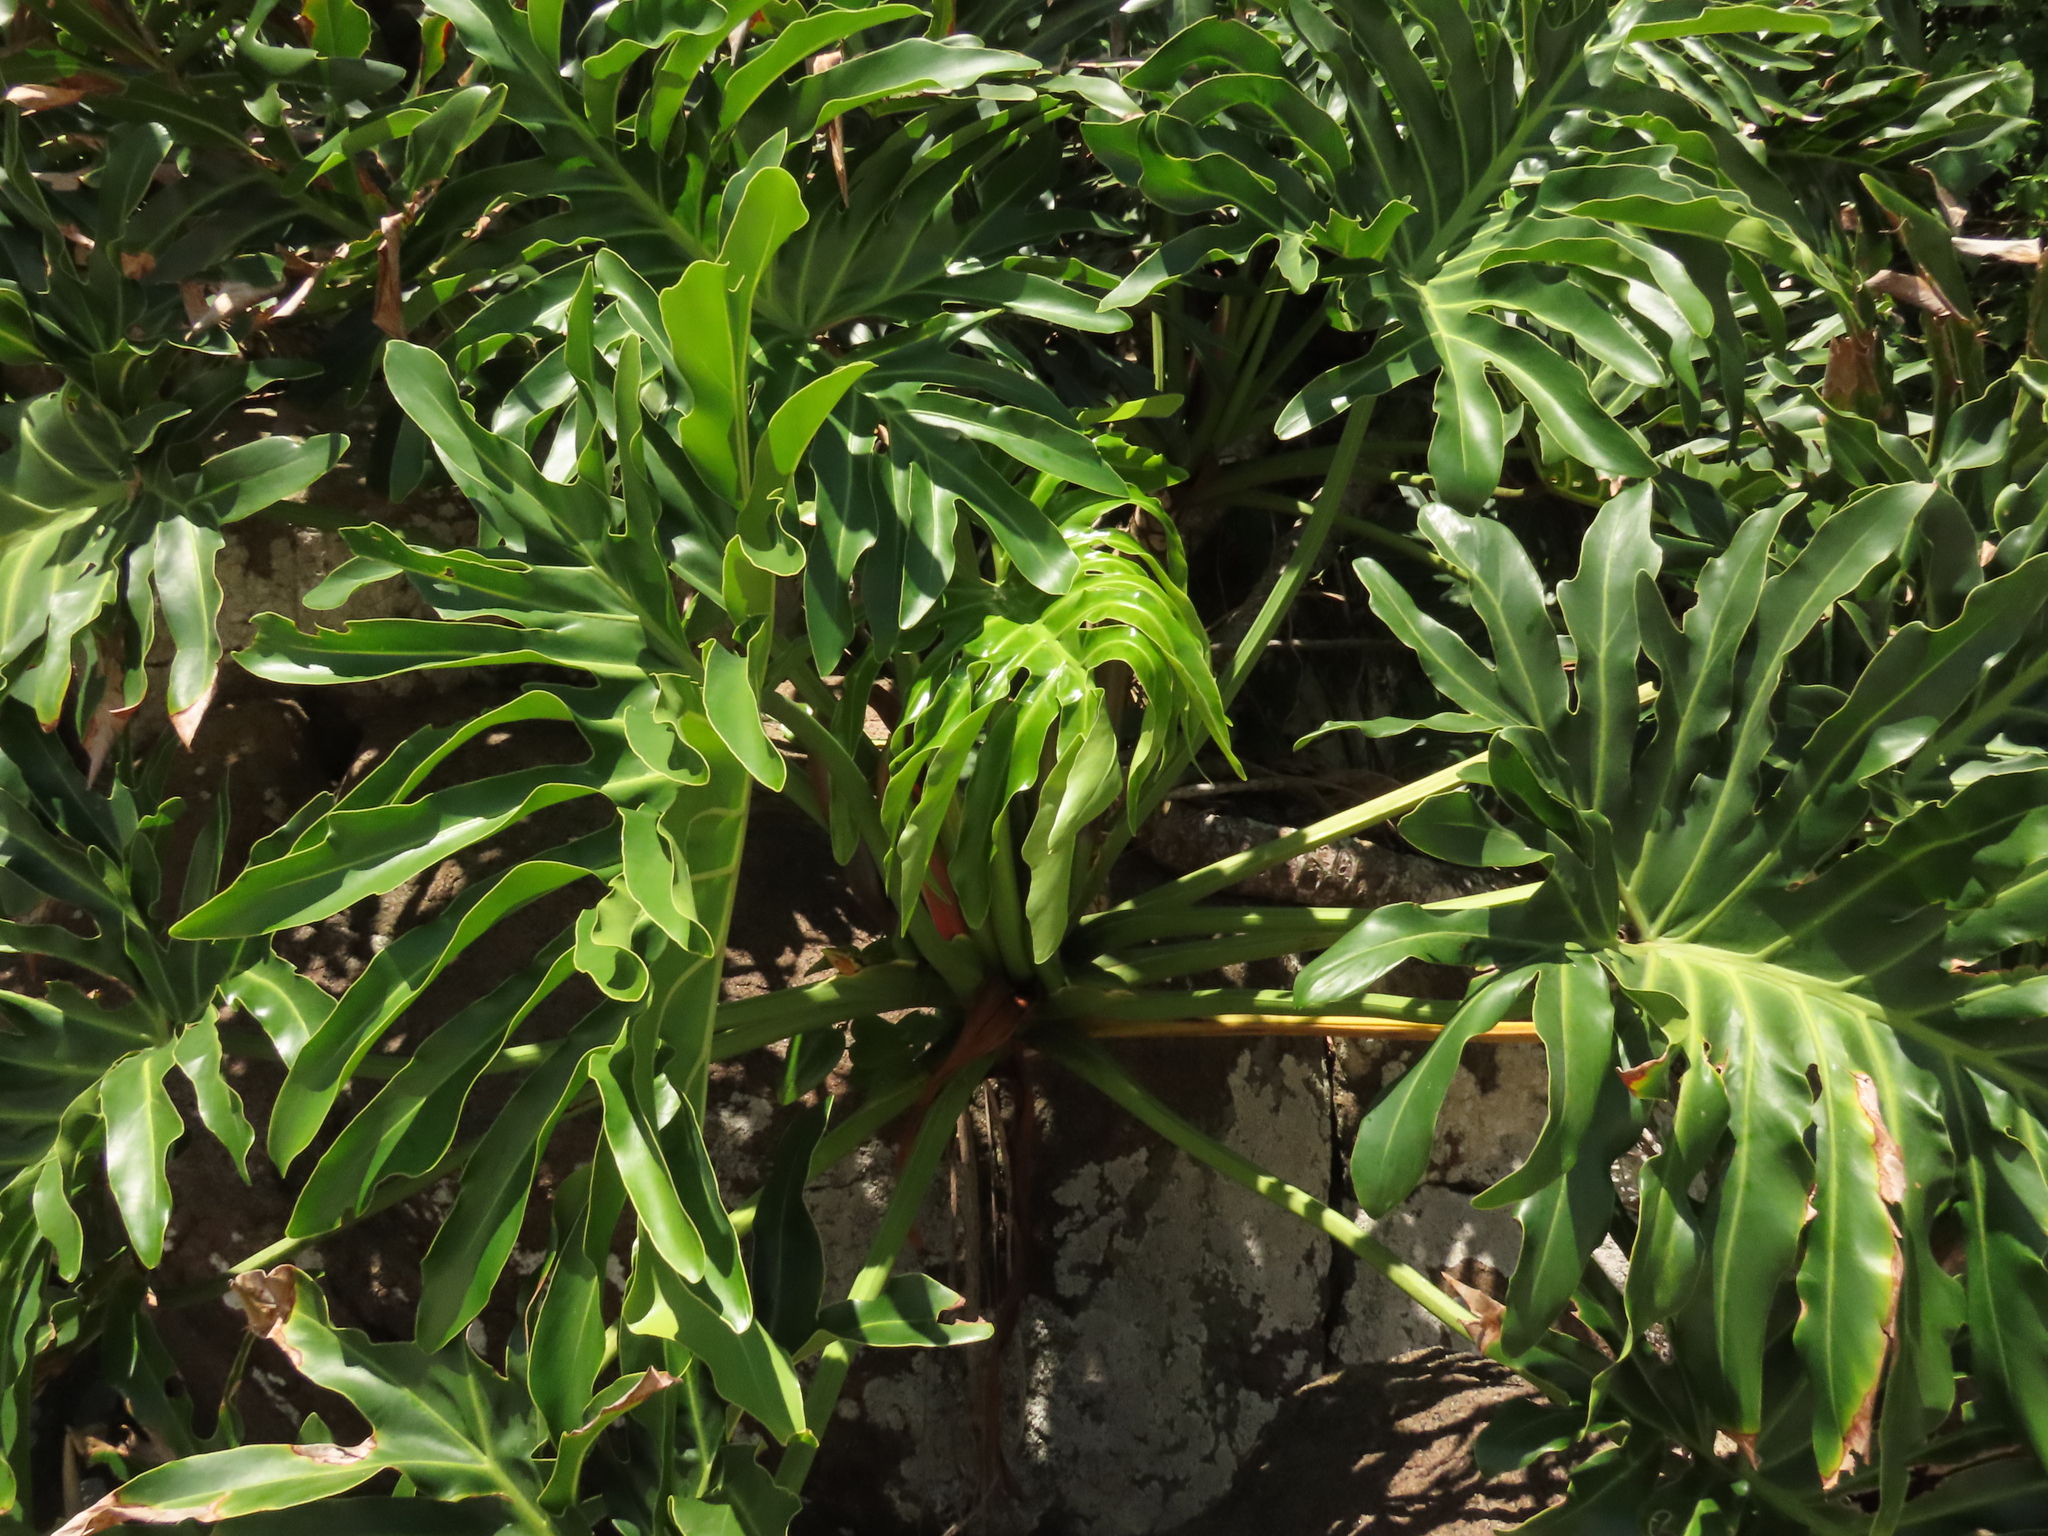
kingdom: Plantae
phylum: Tracheophyta
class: Liliopsida
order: Alismatales
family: Araceae
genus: Thaumatophyllum
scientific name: Thaumatophyllum bipinnatifidum
